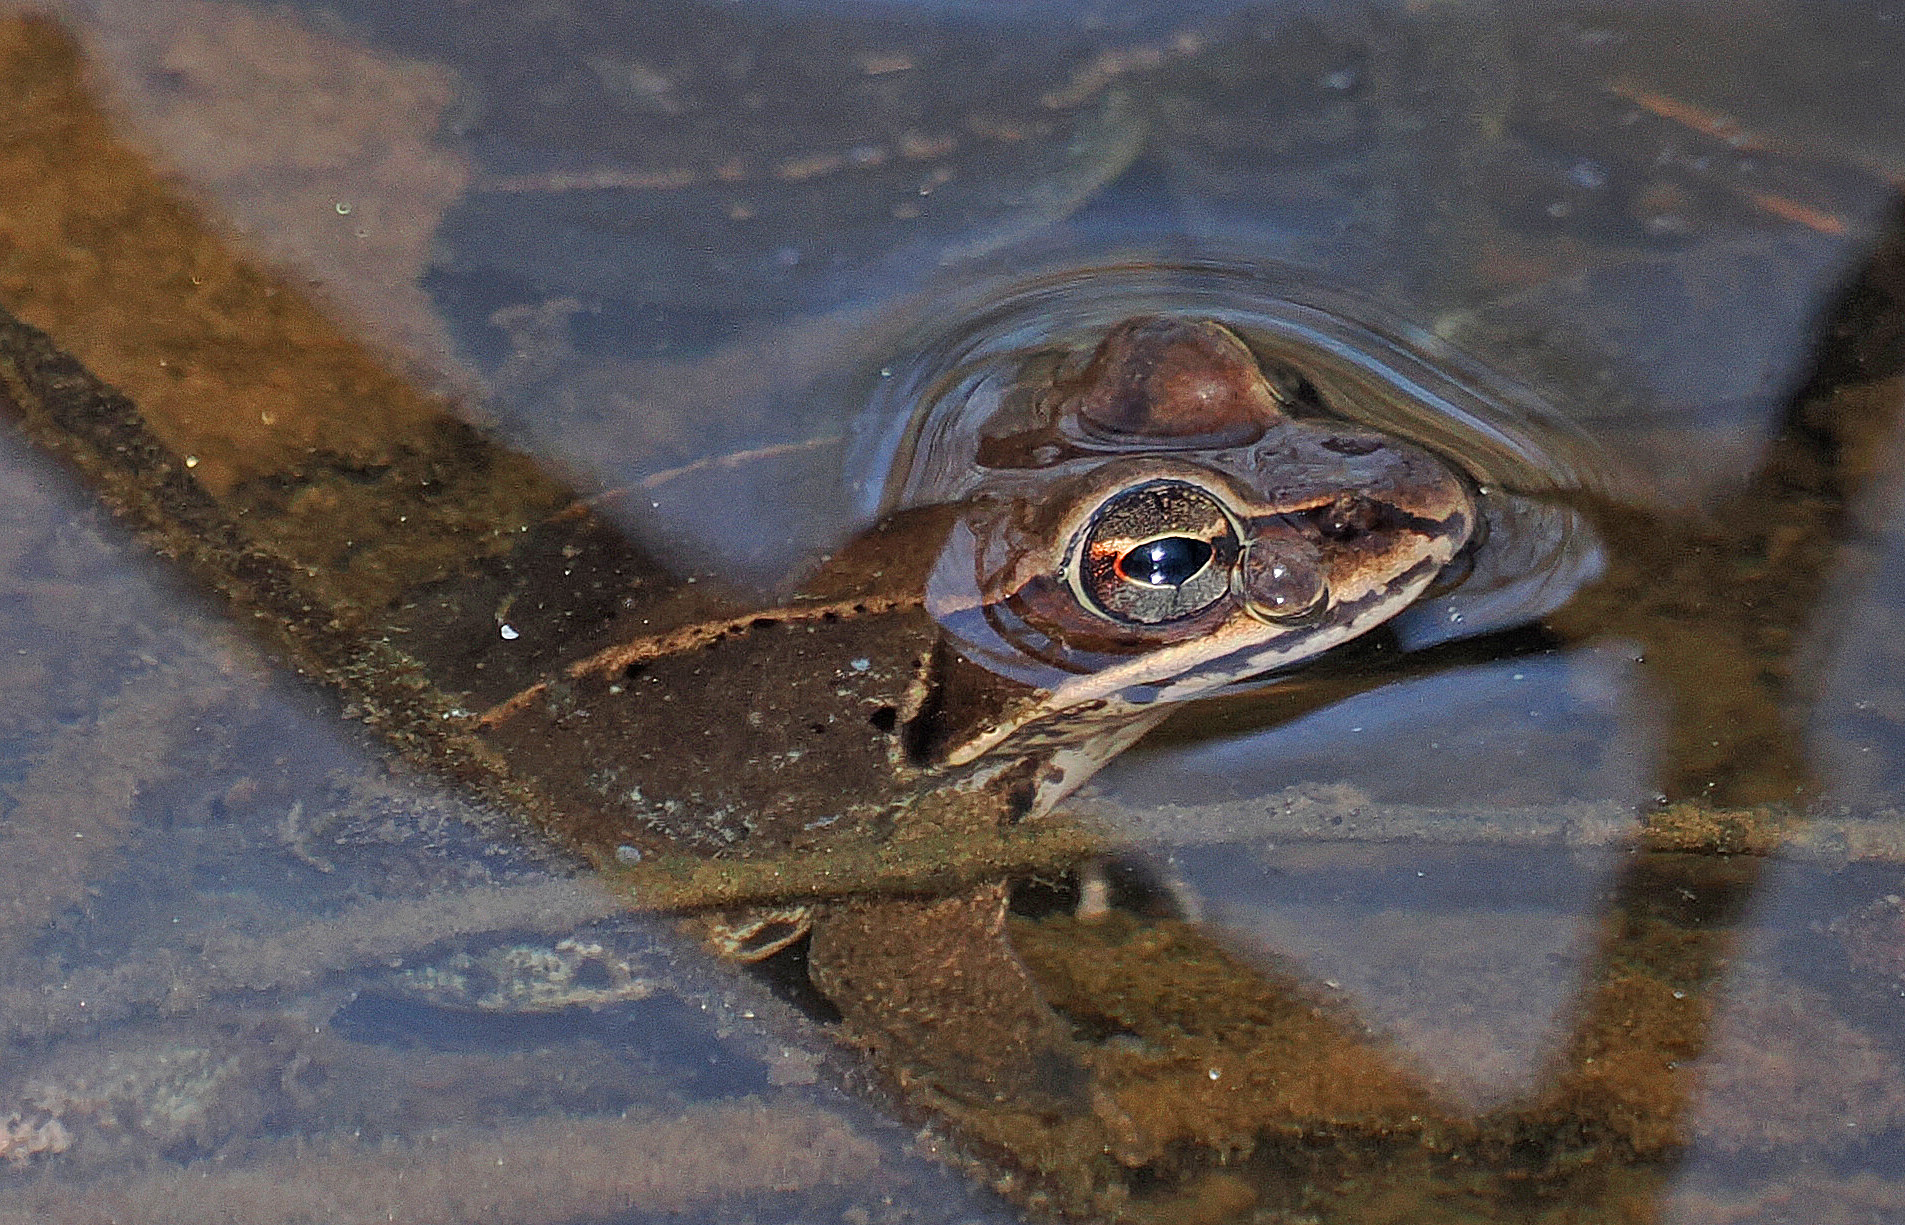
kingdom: Animalia
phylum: Chordata
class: Amphibia
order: Anura
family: Ranidae
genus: Lithobates
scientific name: Lithobates sylvaticus
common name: Wood frog
